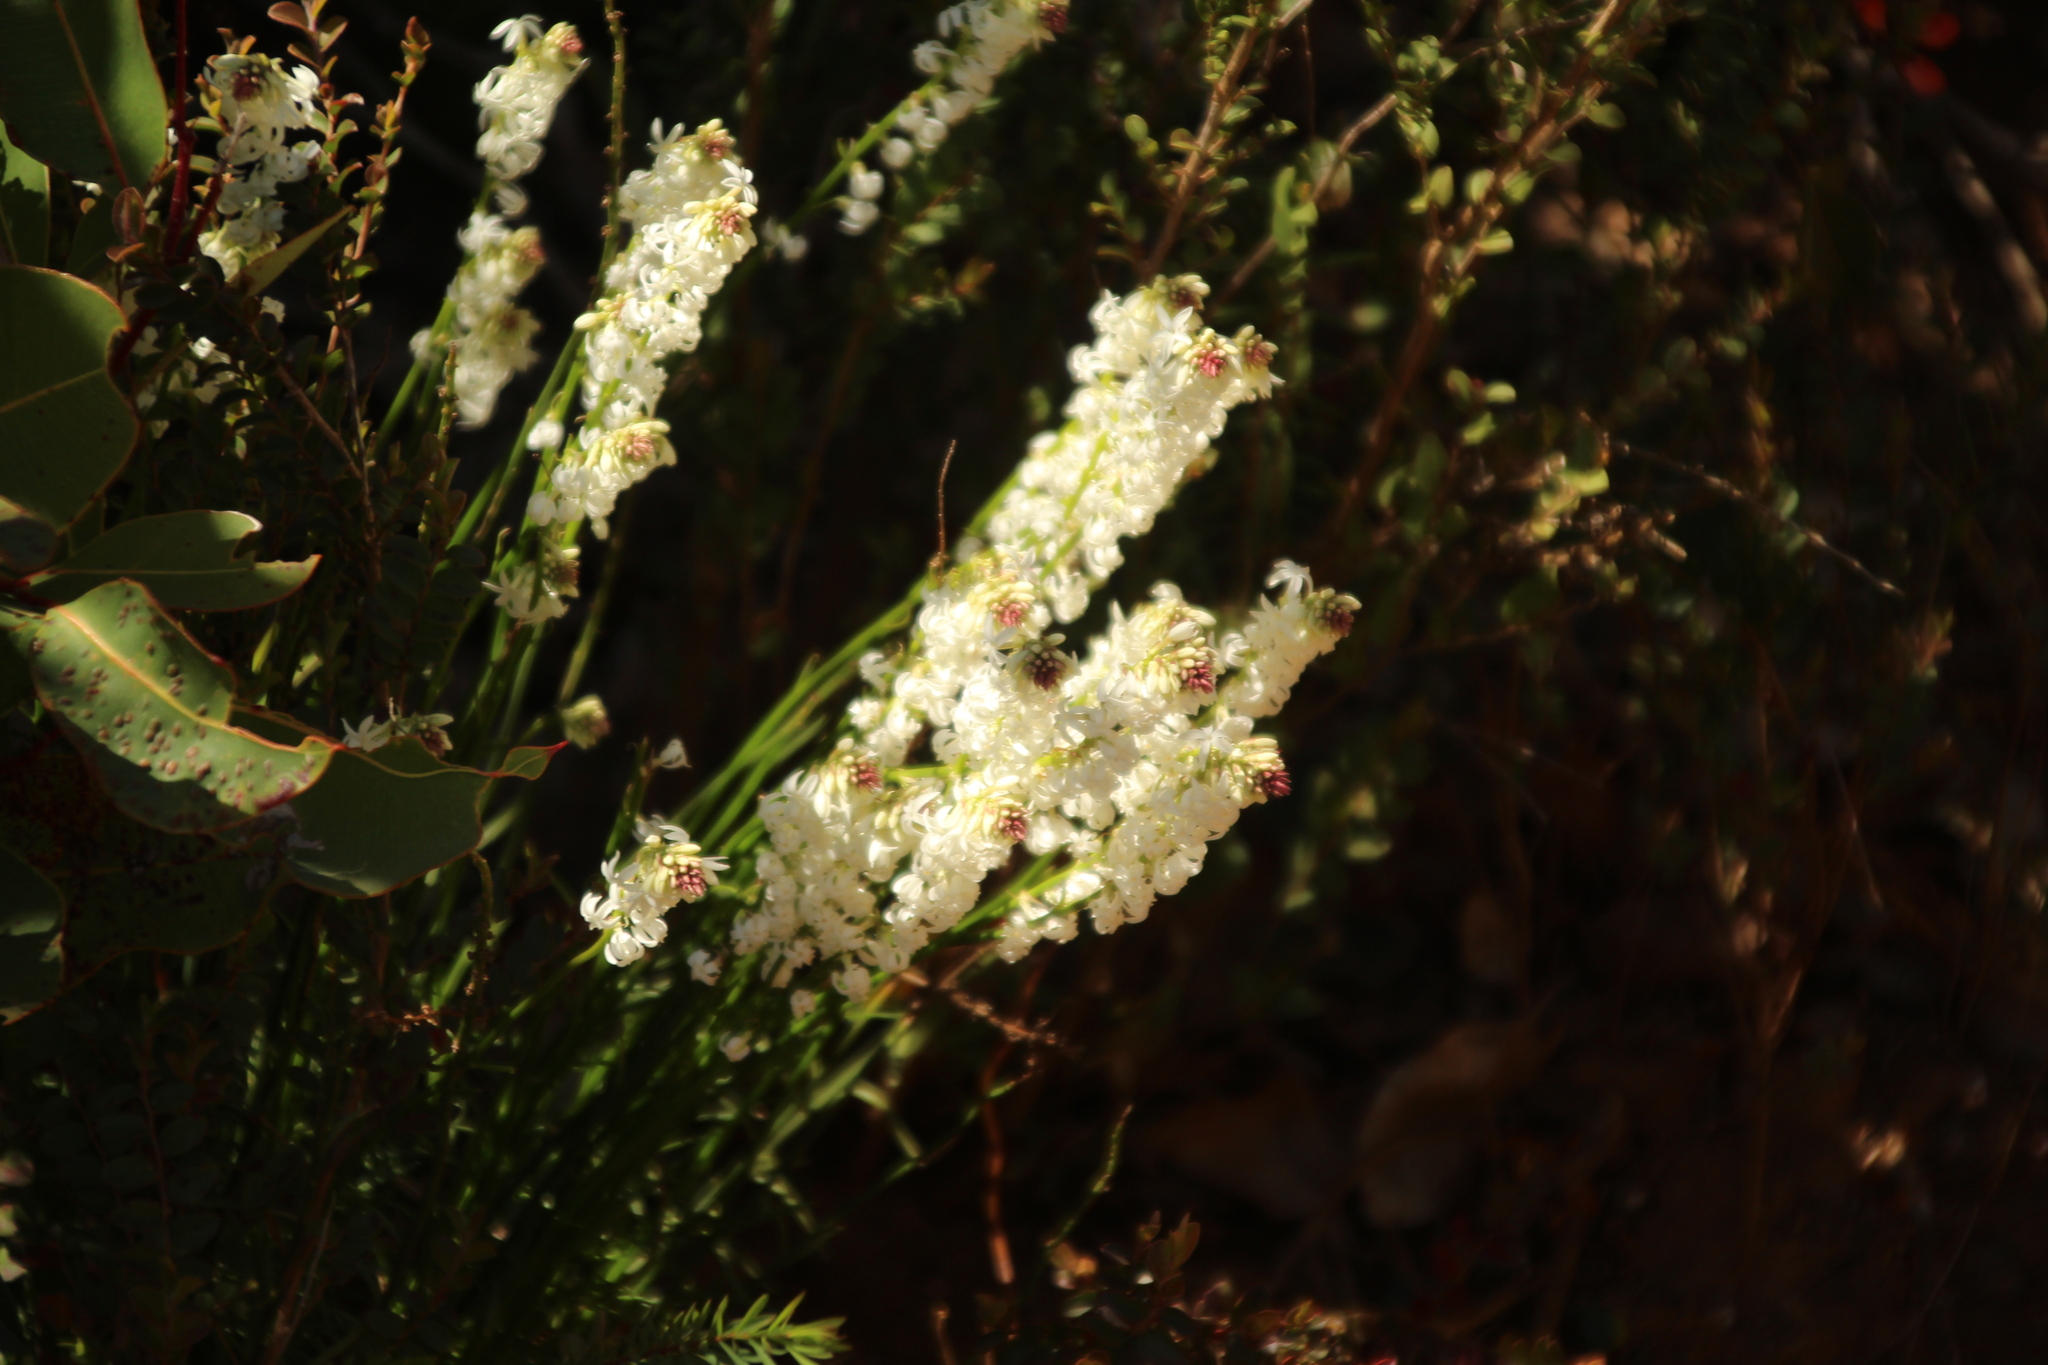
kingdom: Plantae
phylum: Tracheophyta
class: Magnoliopsida
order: Celastrales
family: Celastraceae
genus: Stackhousia
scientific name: Stackhousia monogyna
